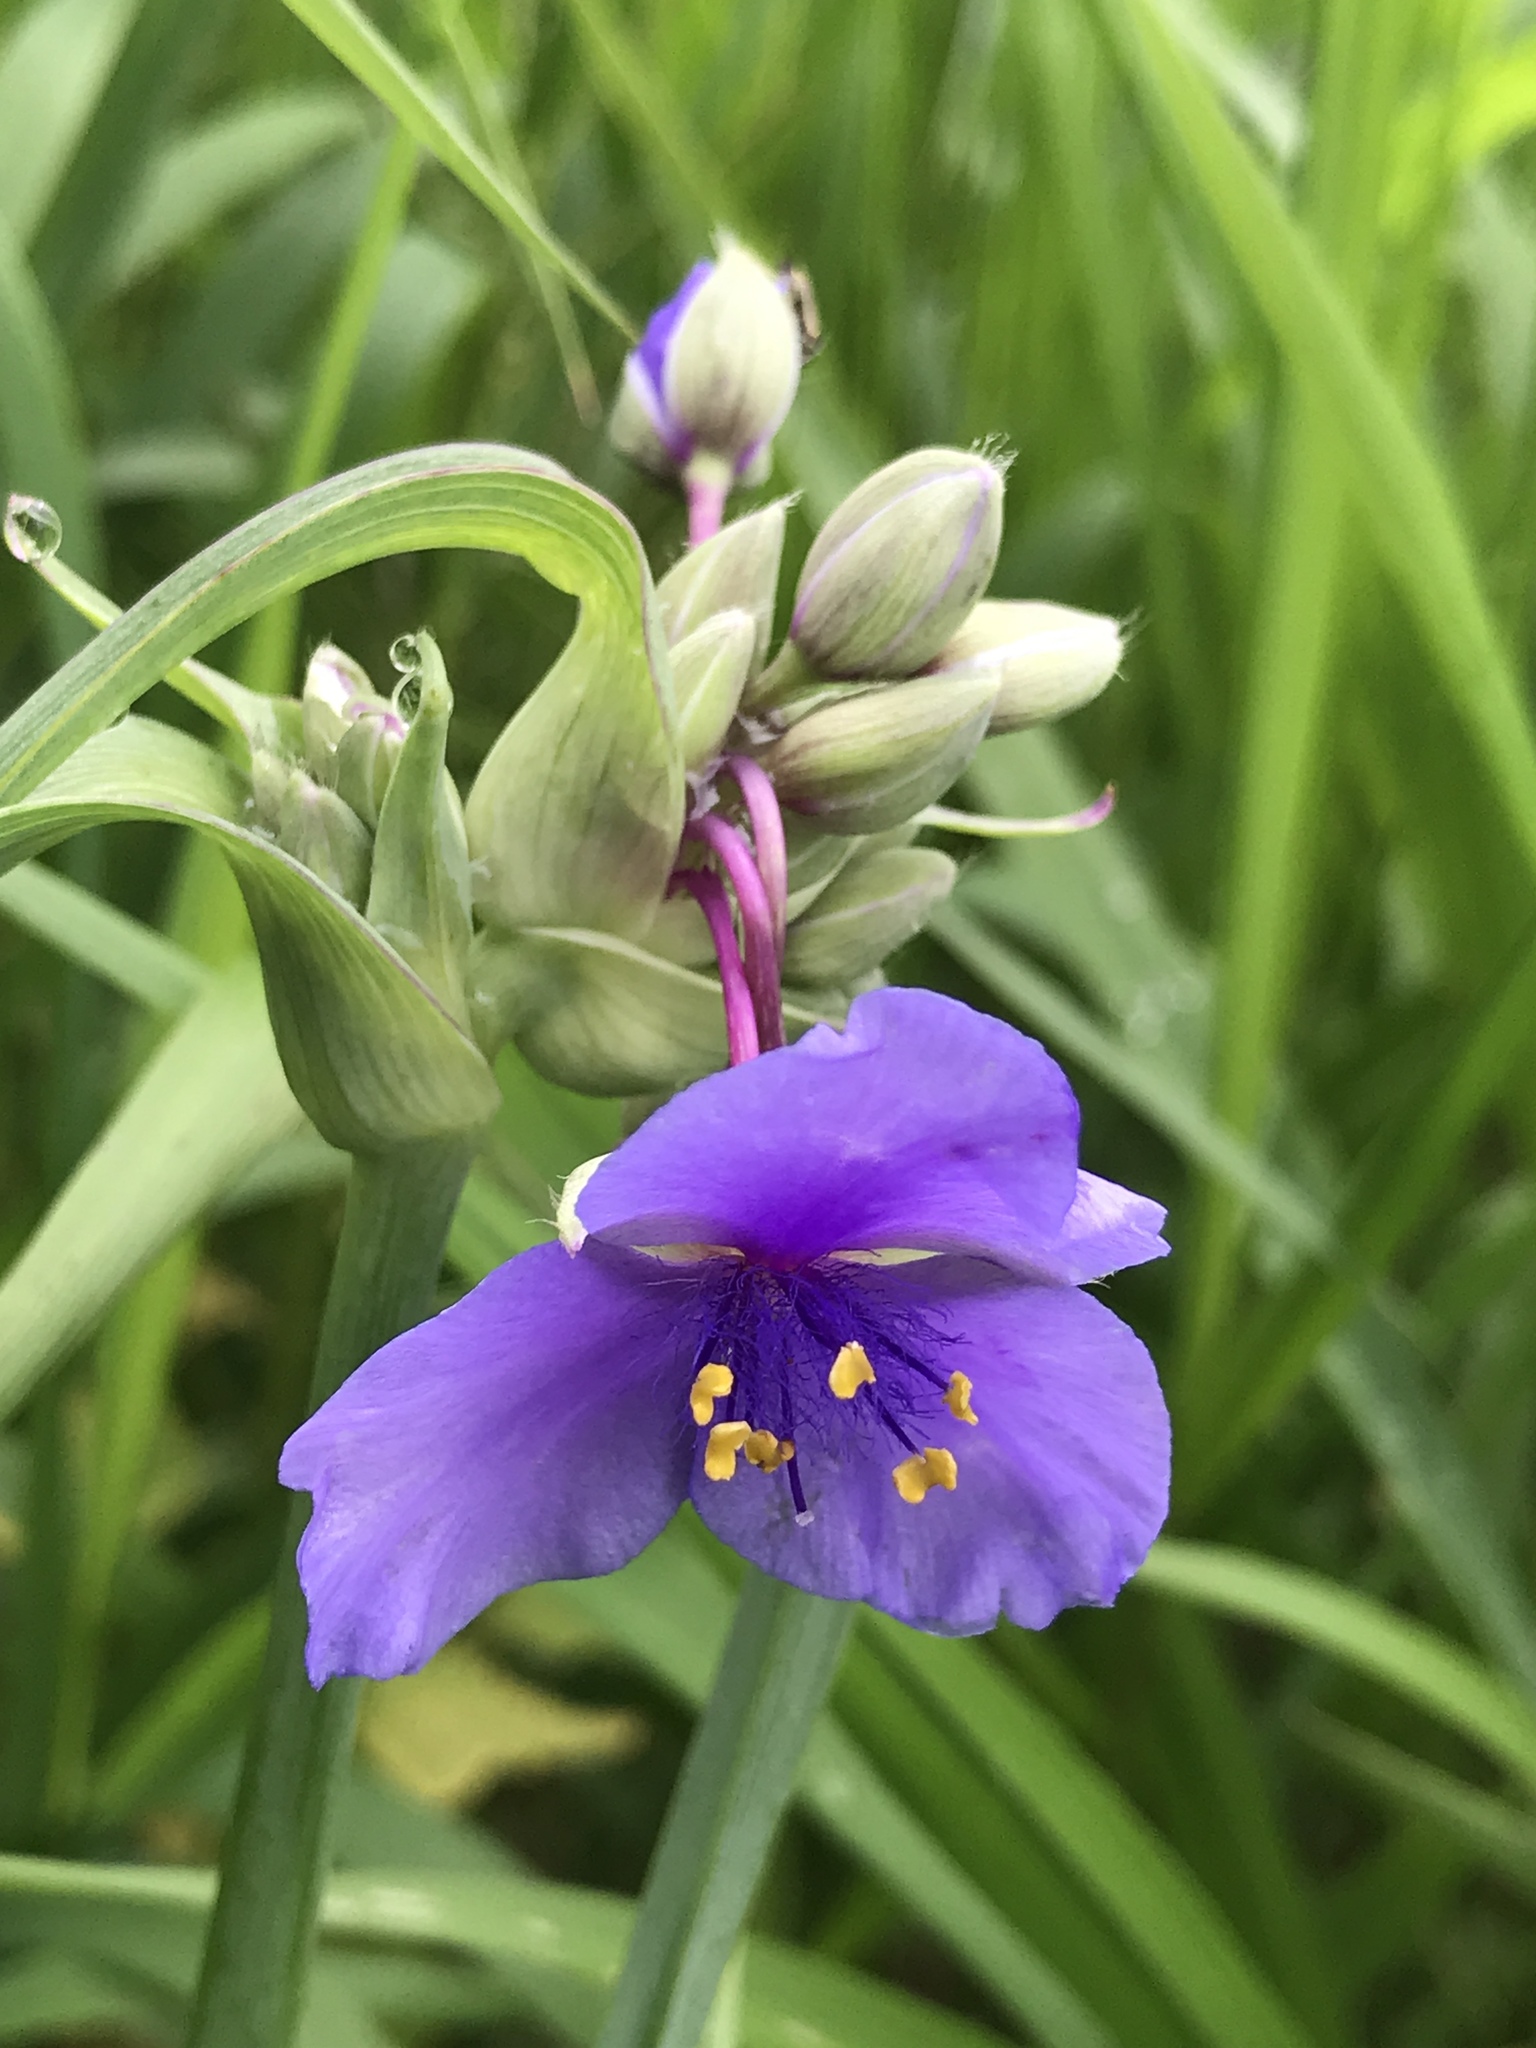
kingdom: Plantae
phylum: Tracheophyta
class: Liliopsida
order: Commelinales
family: Commelinaceae
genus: Tradescantia
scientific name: Tradescantia virginiana
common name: Spiderwort
